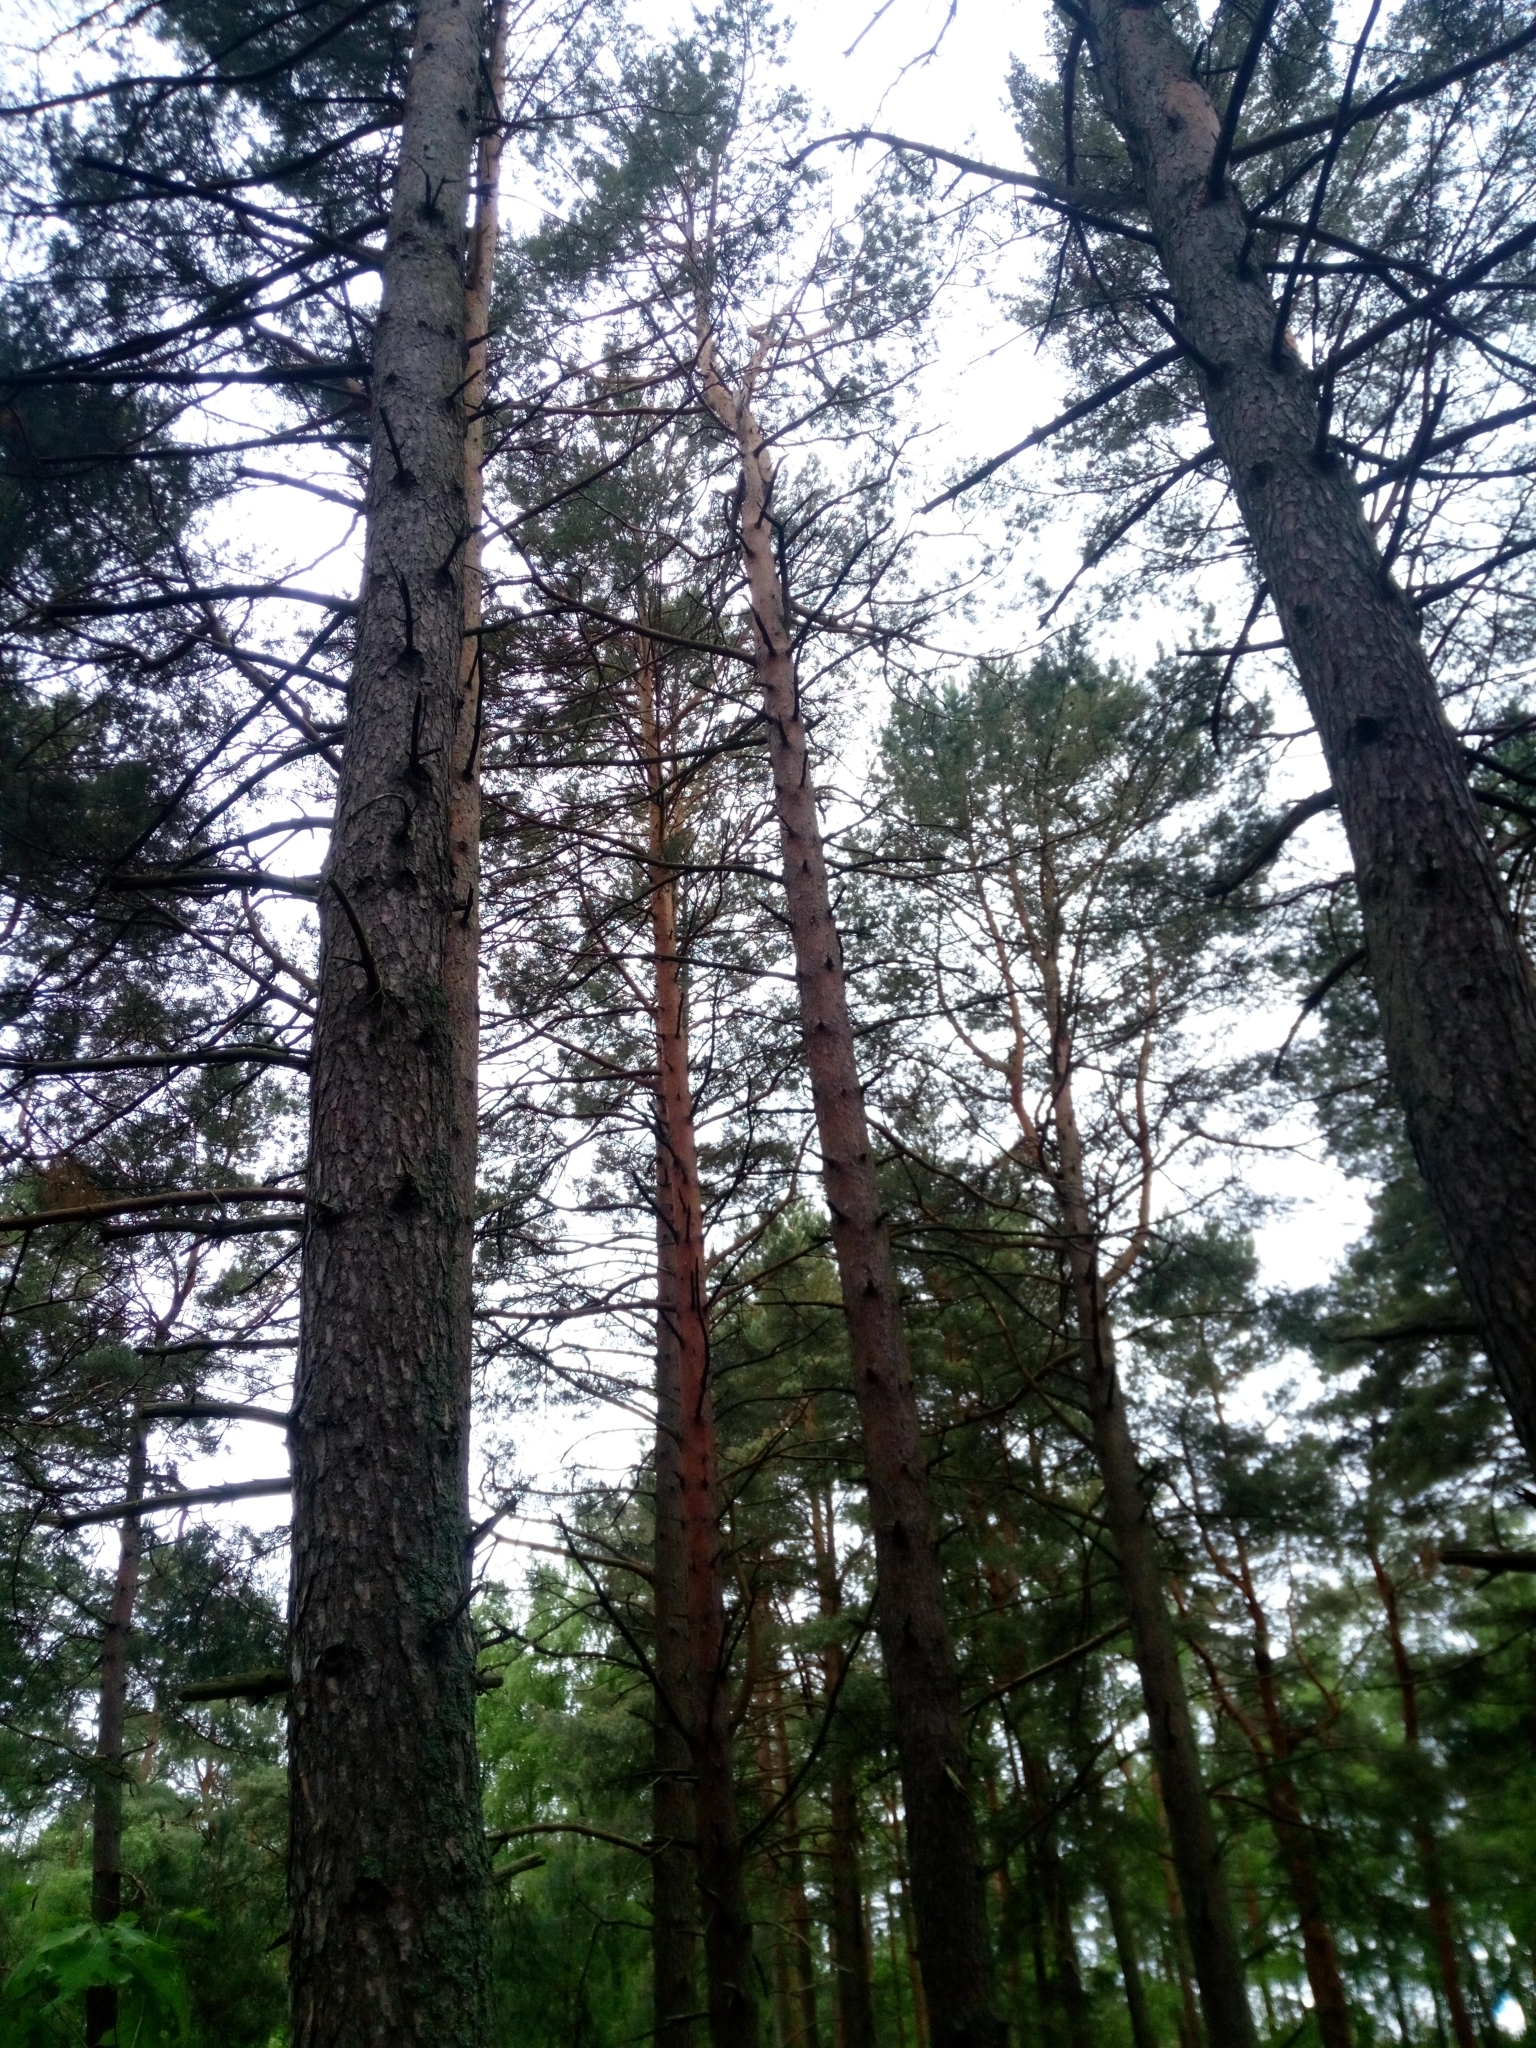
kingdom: Plantae
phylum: Tracheophyta
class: Pinopsida
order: Pinales
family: Pinaceae
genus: Pinus
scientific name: Pinus sylvestris
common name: Scots pine
